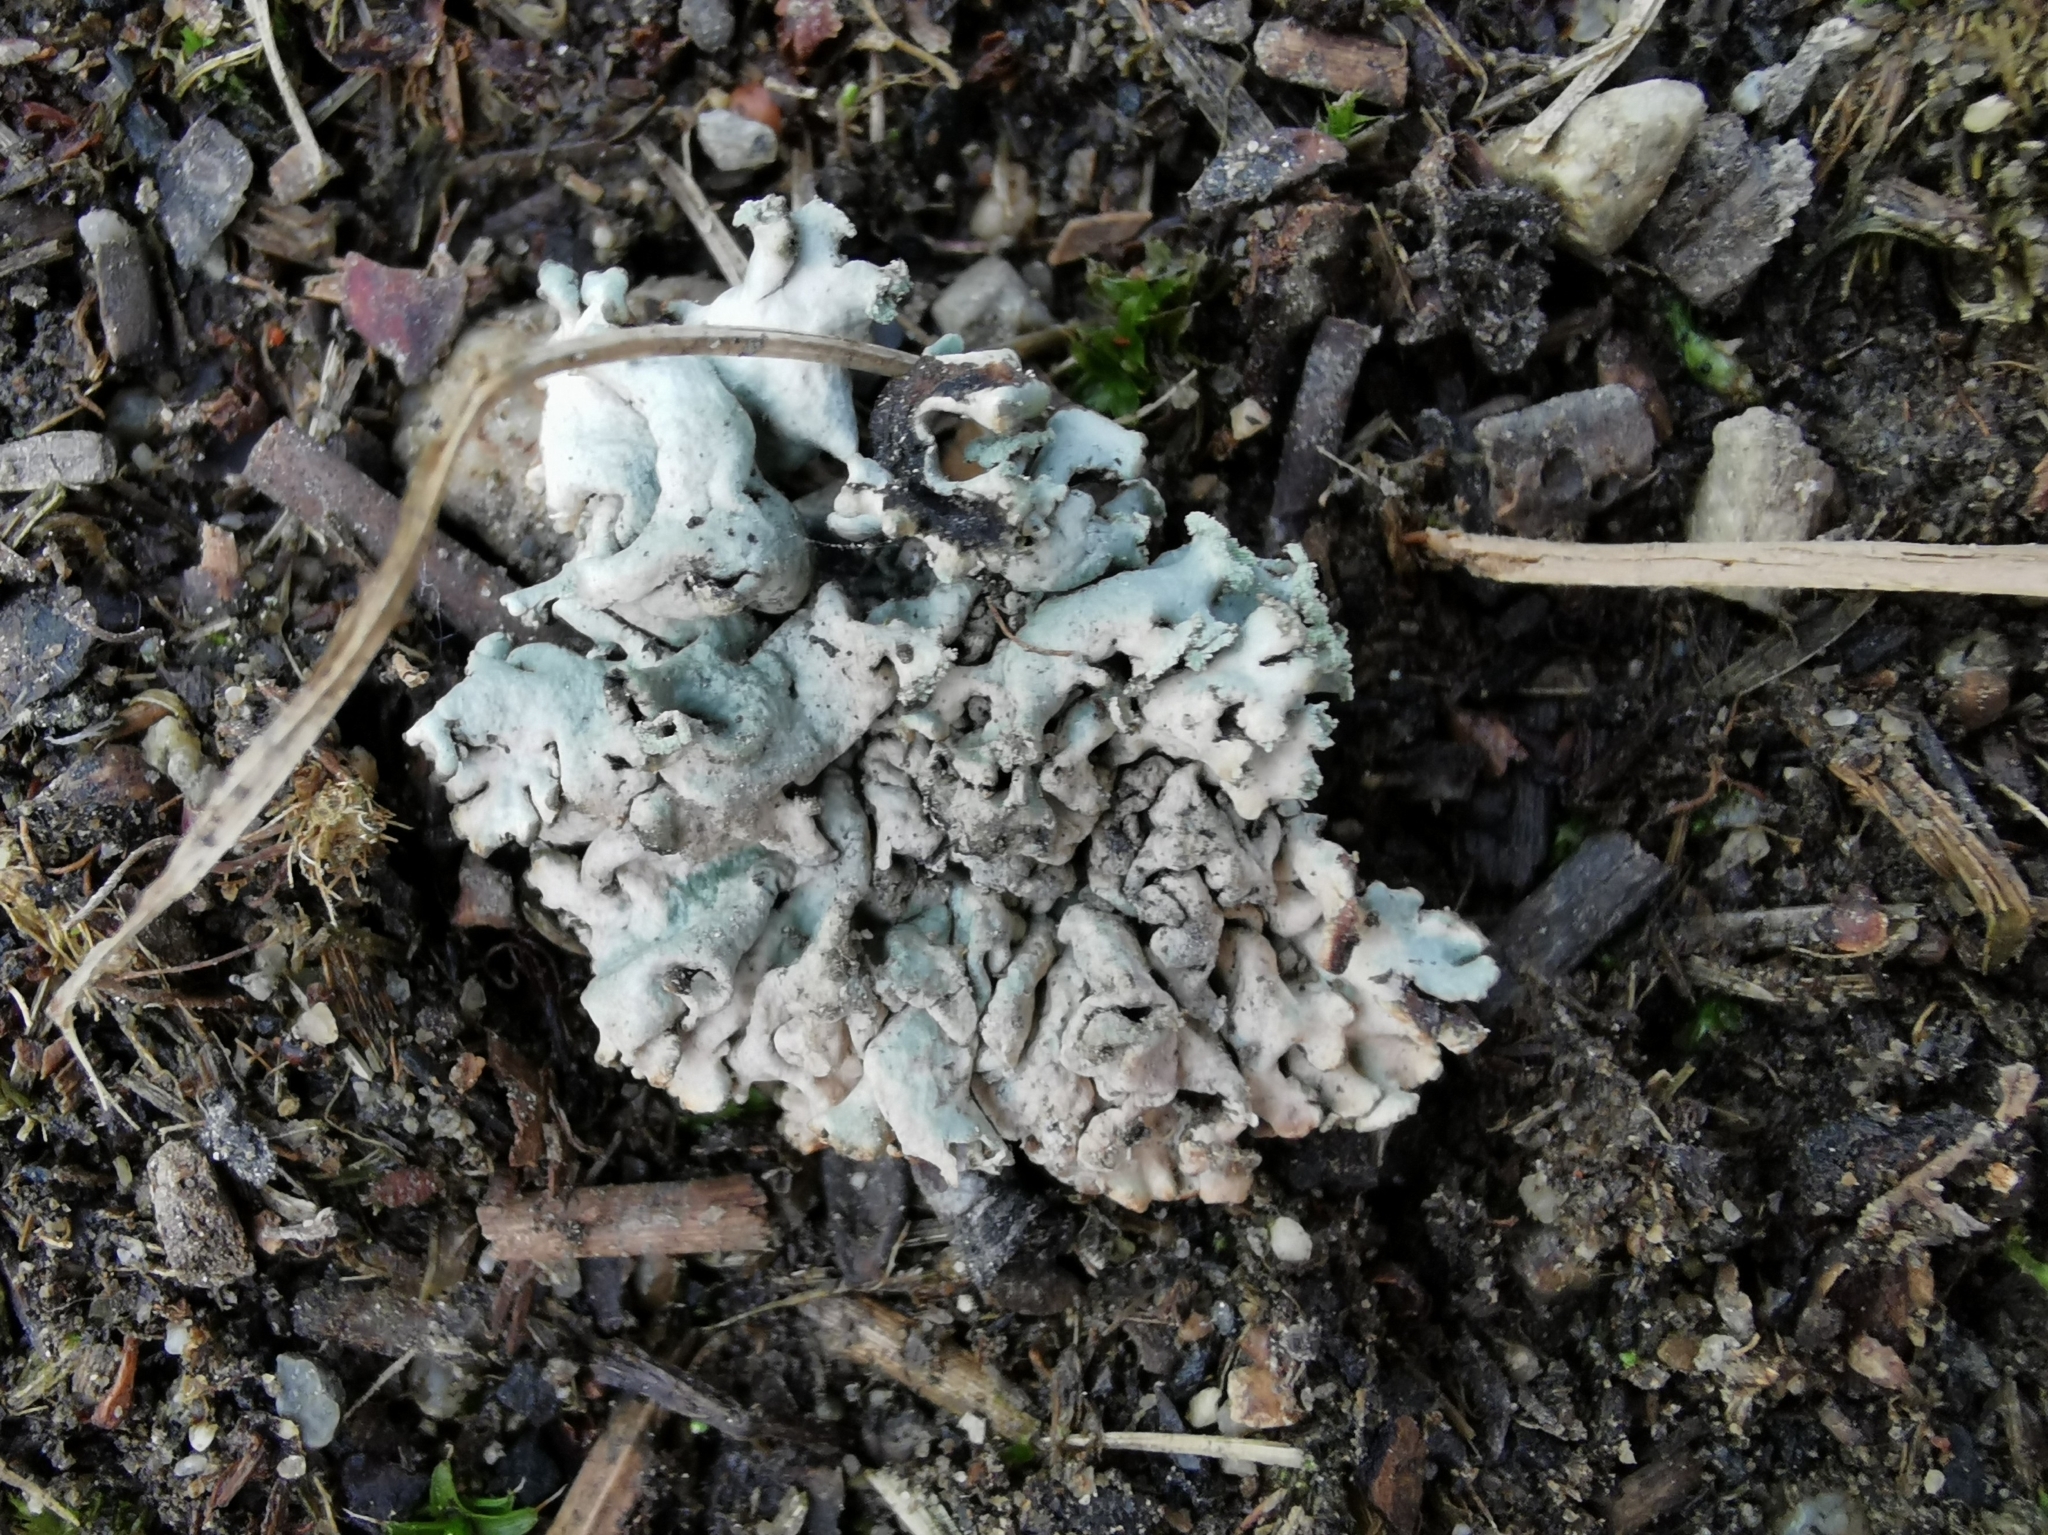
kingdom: Fungi
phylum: Ascomycota
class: Lecanoromycetes
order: Lecanorales
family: Parmeliaceae
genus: Hypogymnia
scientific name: Hypogymnia physodes
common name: Dark crottle
